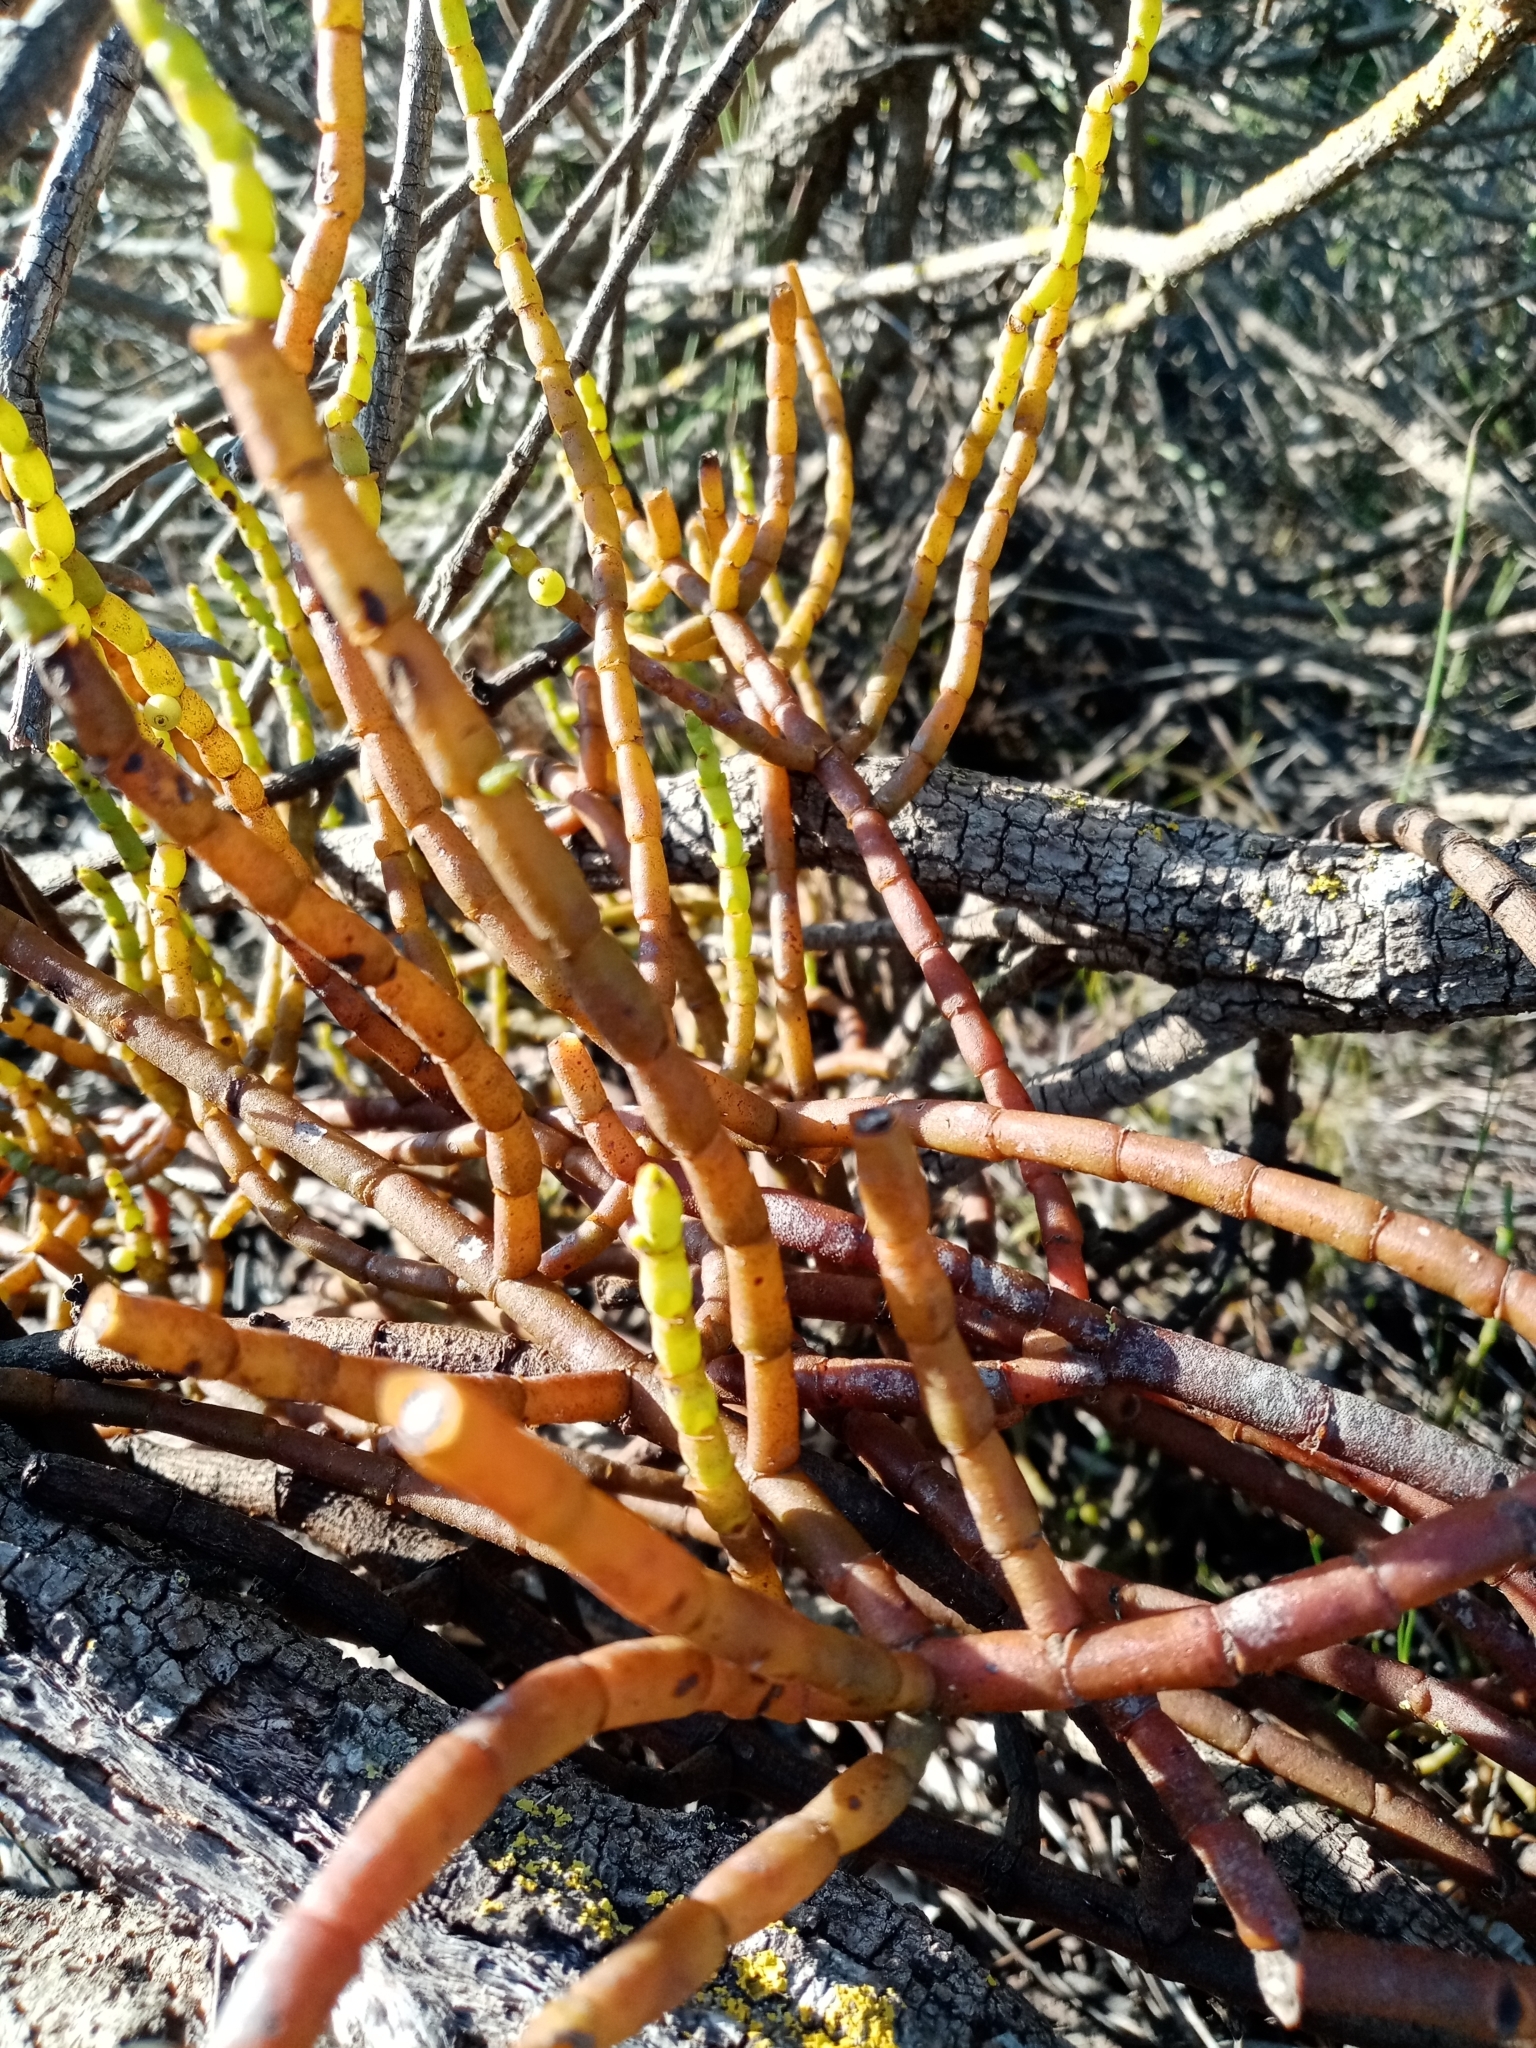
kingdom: Plantae
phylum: Tracheophyta
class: Magnoliopsida
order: Santalales
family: Viscaceae
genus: Viscum
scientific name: Viscum capense
